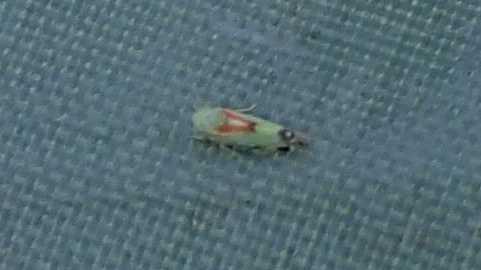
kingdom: Animalia
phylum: Arthropoda
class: Insecta
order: Hemiptera
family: Cicadellidae
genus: Zyginella
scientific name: Zyginella pulchra
